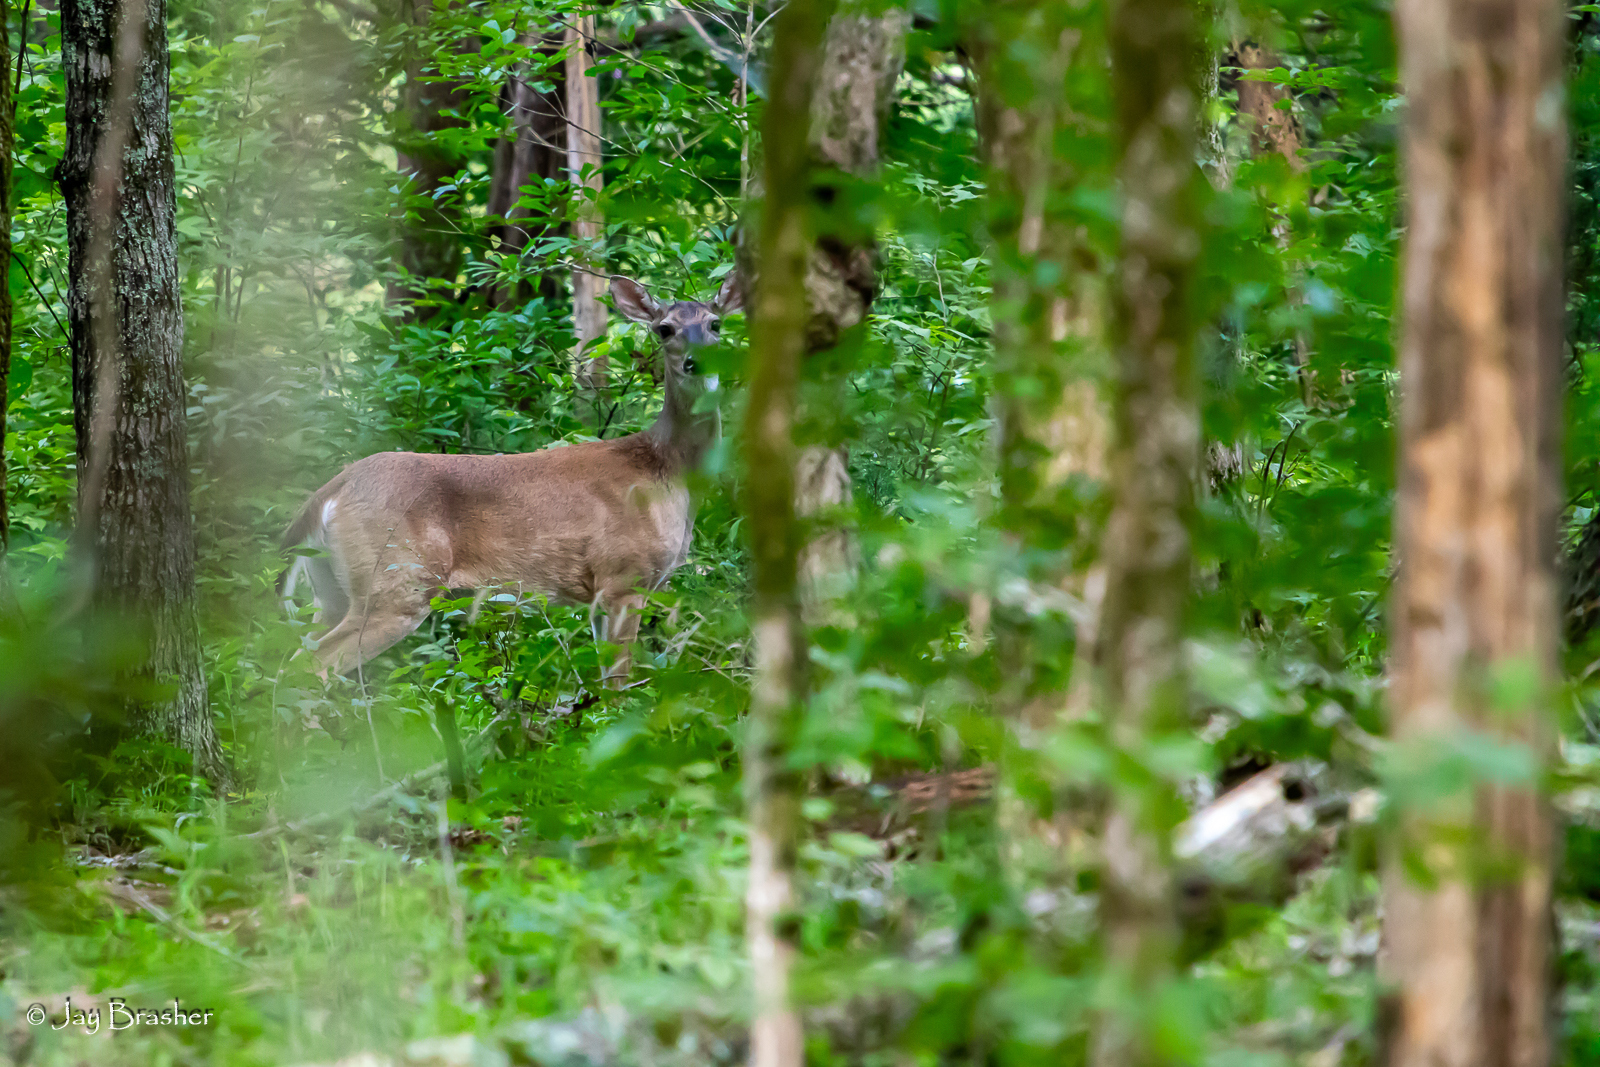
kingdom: Animalia
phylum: Chordata
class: Mammalia
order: Artiodactyla
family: Cervidae
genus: Odocoileus
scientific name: Odocoileus virginianus
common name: White-tailed deer
